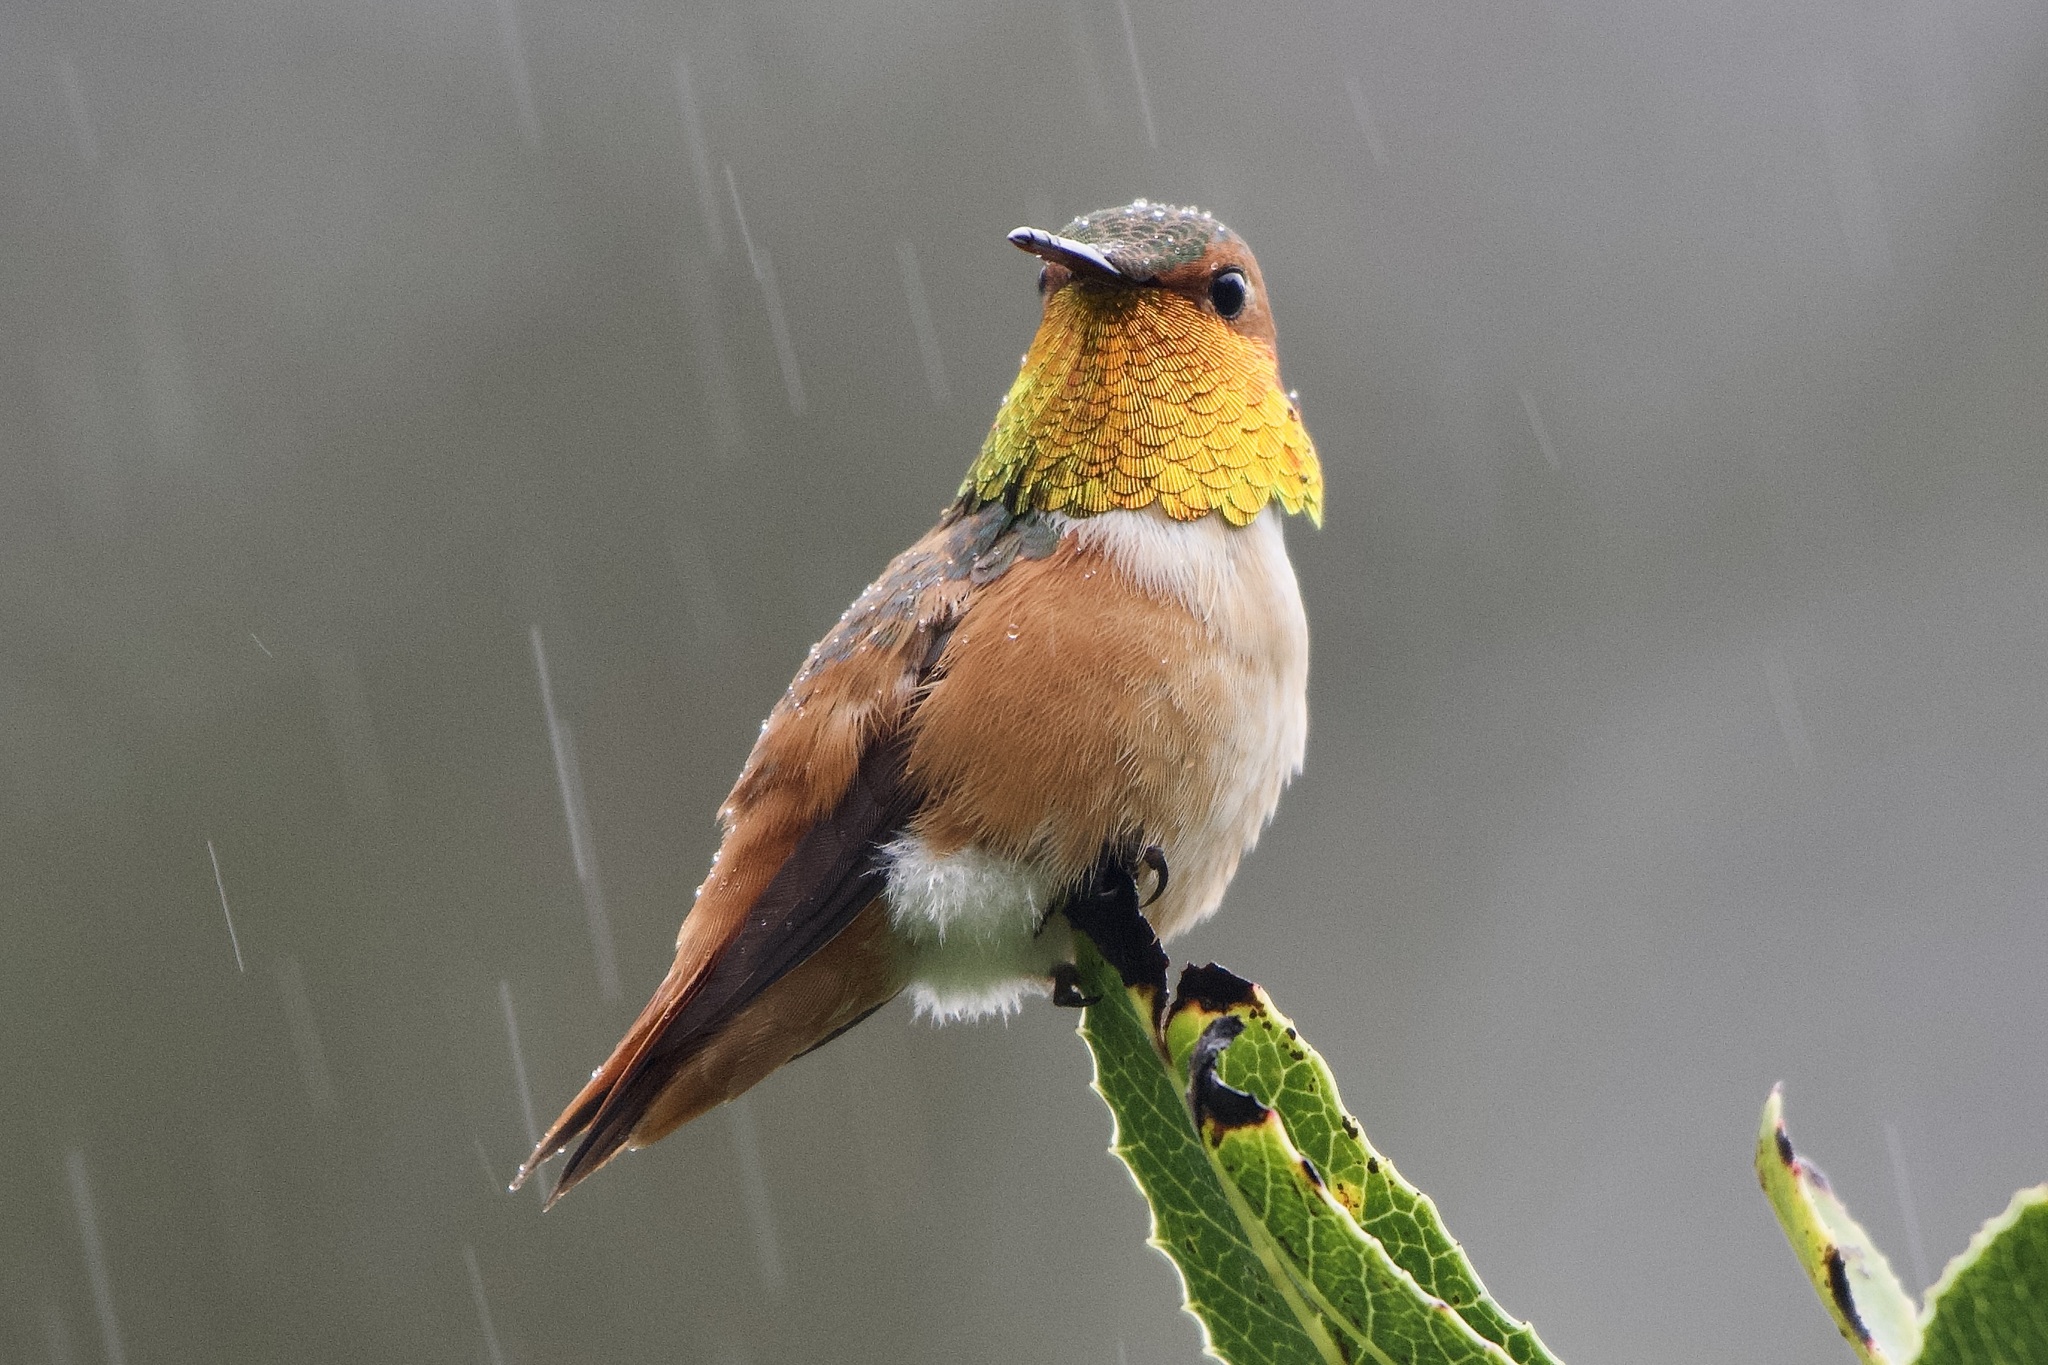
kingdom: Animalia
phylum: Chordata
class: Aves
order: Apodiformes
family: Trochilidae
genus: Selasphorus
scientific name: Selasphorus sasin
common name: Allen's hummingbird
